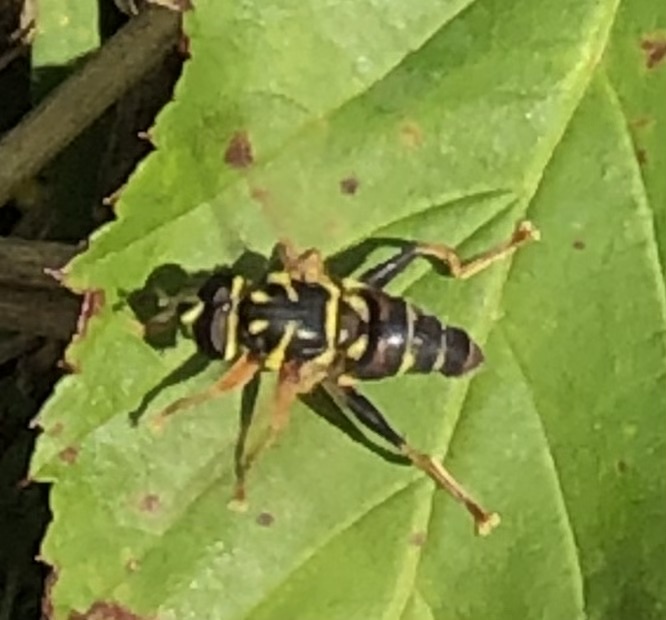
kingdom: Animalia
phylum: Arthropoda
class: Insecta
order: Diptera
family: Syrphidae
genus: Meromacrus
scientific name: Meromacrus acutus
